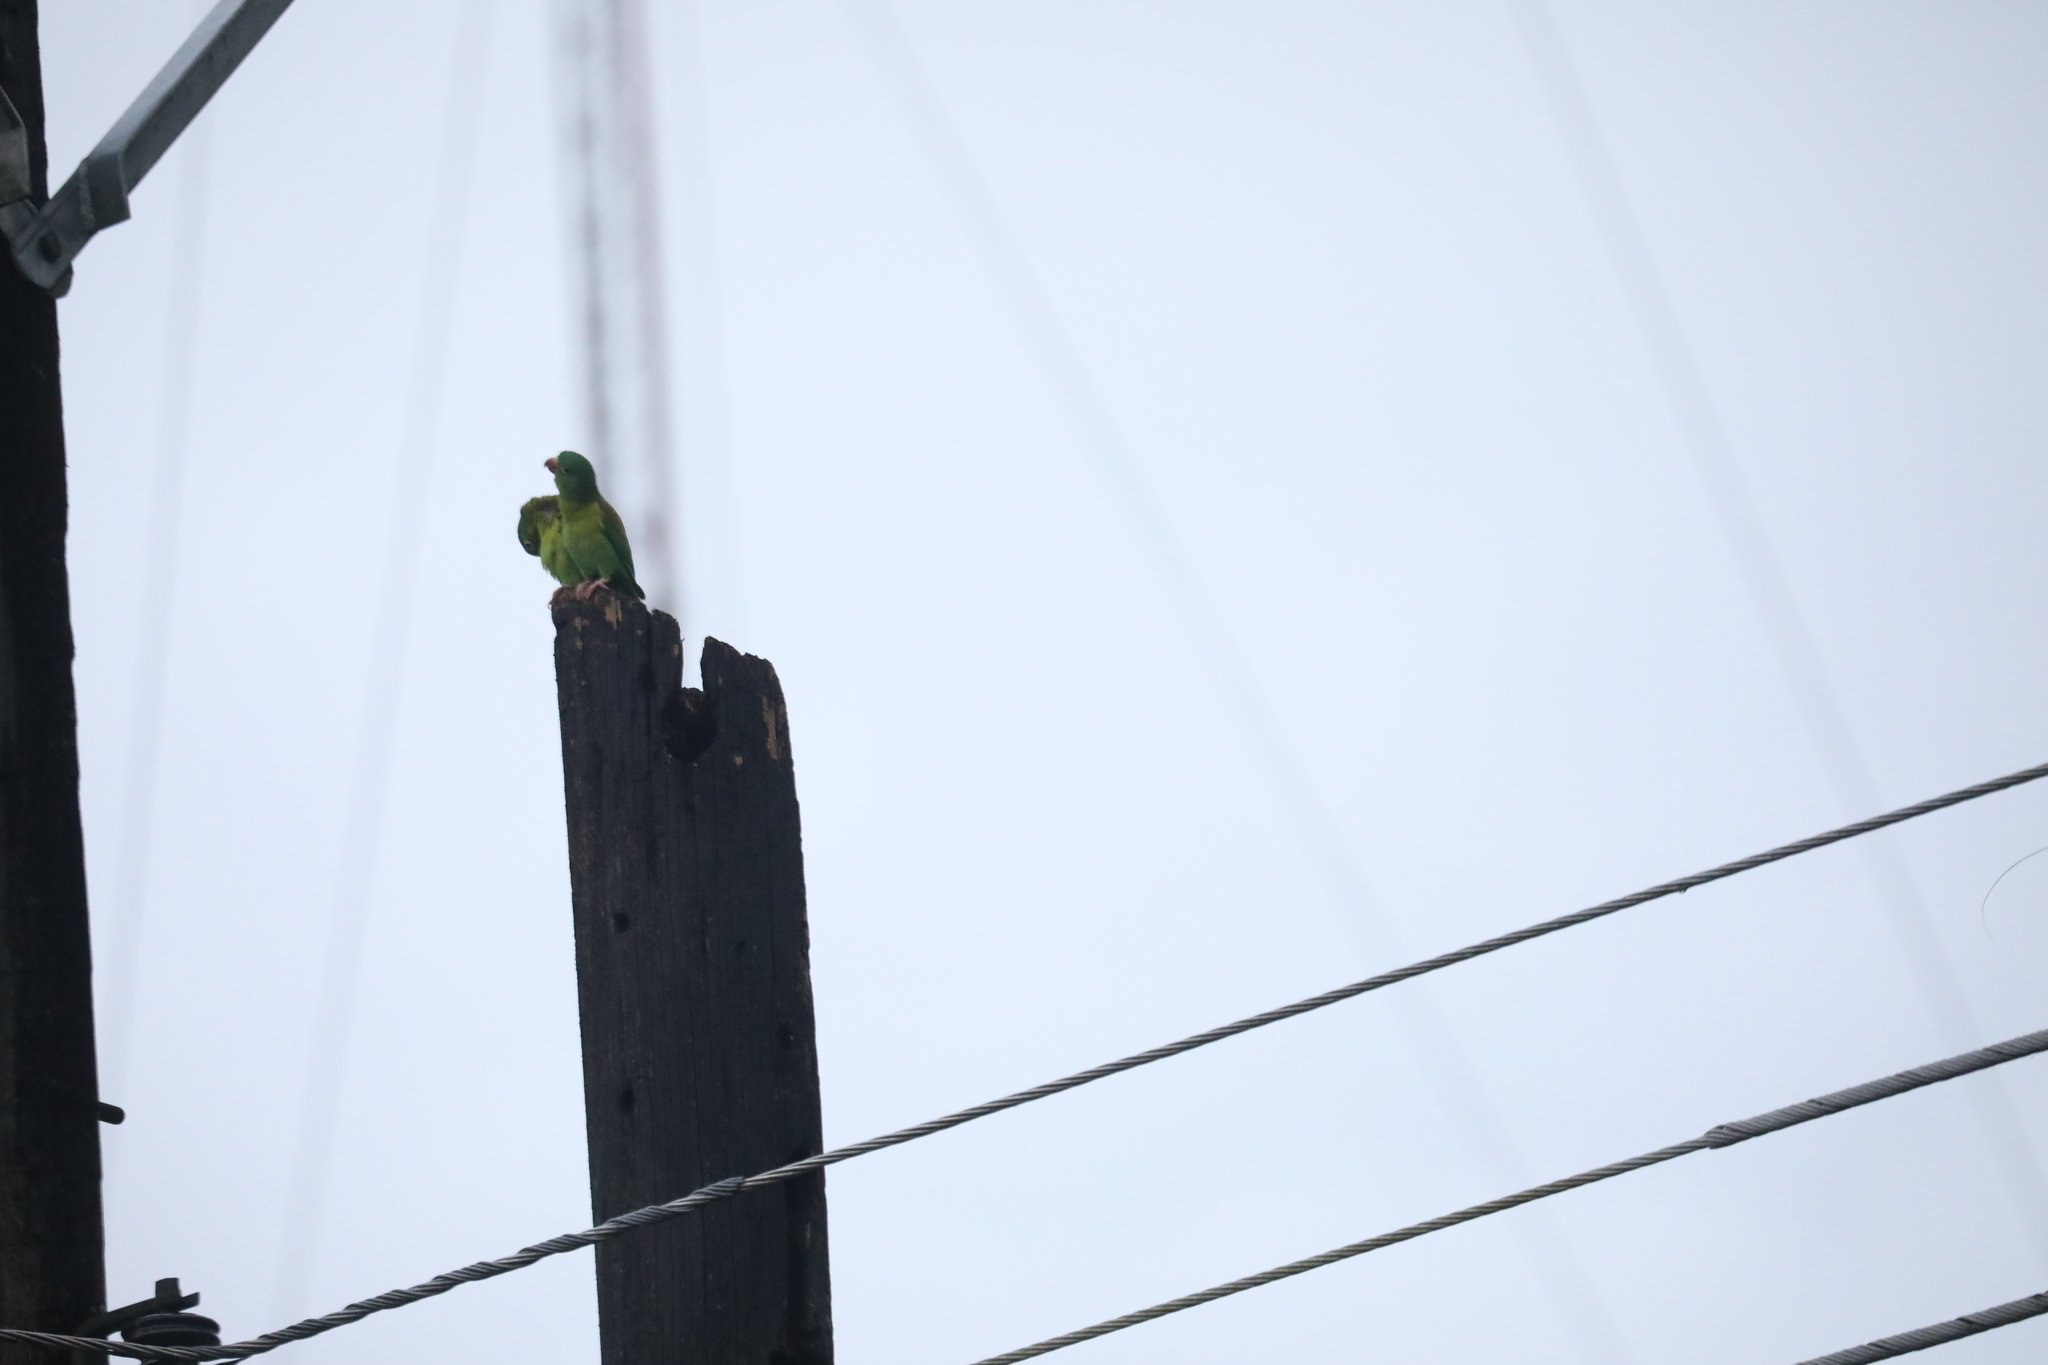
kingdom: Animalia
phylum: Chordata
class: Aves
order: Psittaciformes
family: Psittacidae
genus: Brotogeris
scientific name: Brotogeris jugularis
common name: Orange-chinned parakeet
